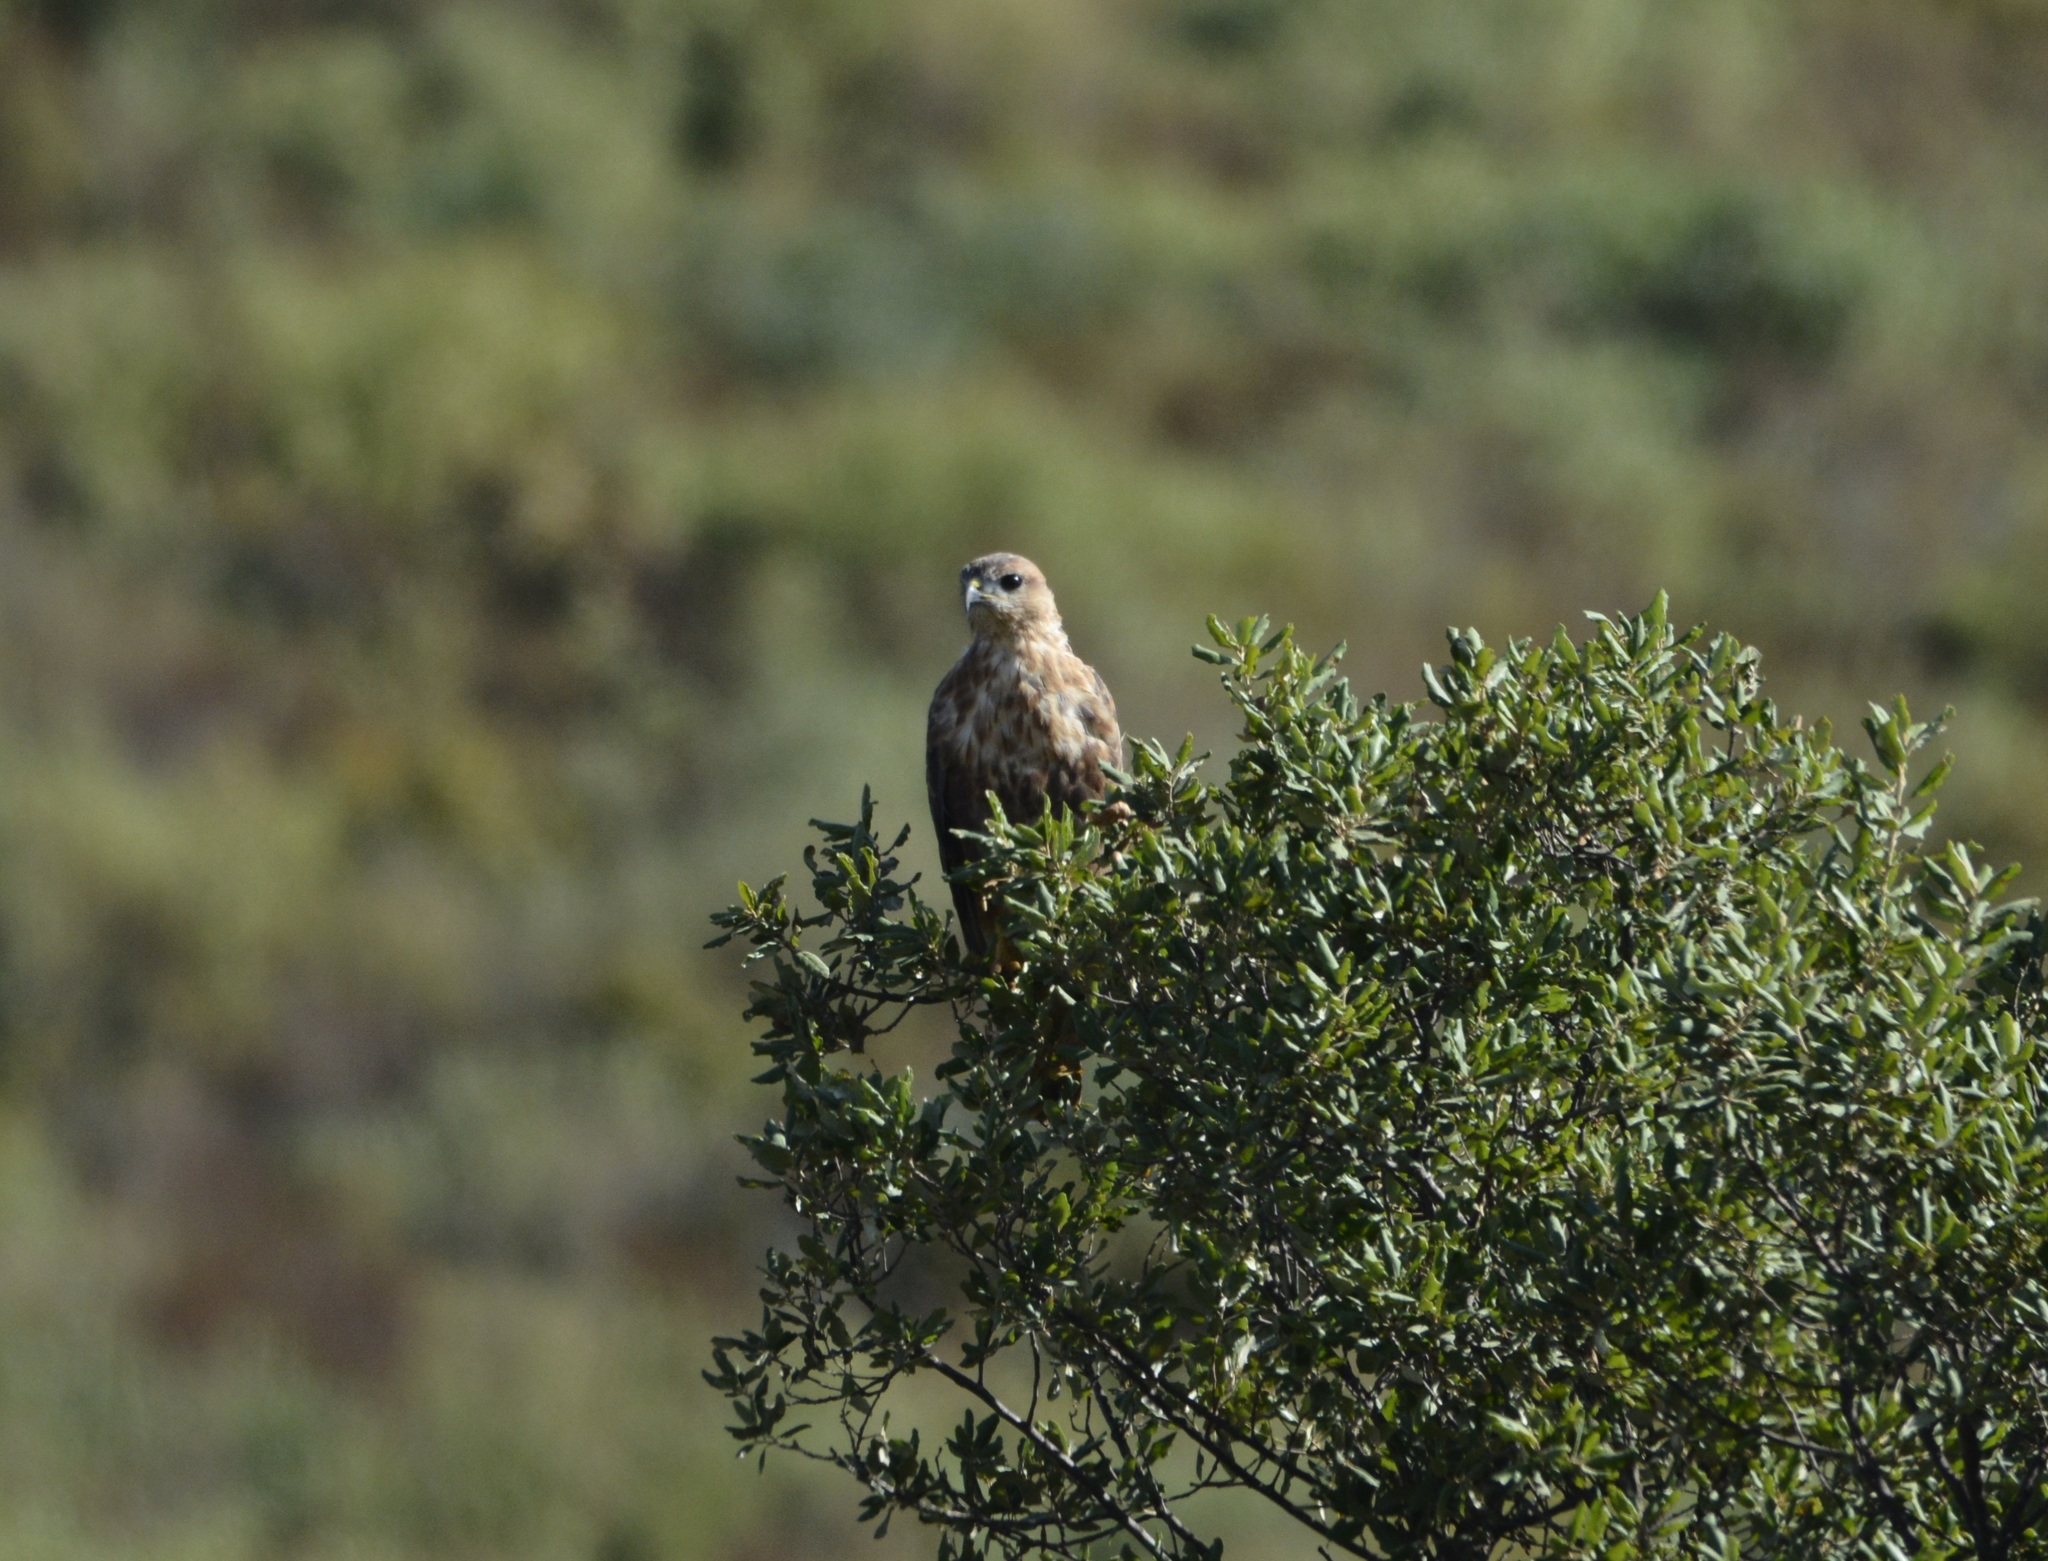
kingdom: Animalia
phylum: Chordata
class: Aves
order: Accipitriformes
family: Accipitridae
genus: Buteo
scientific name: Buteo rufinus
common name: Long-legged buzzard
